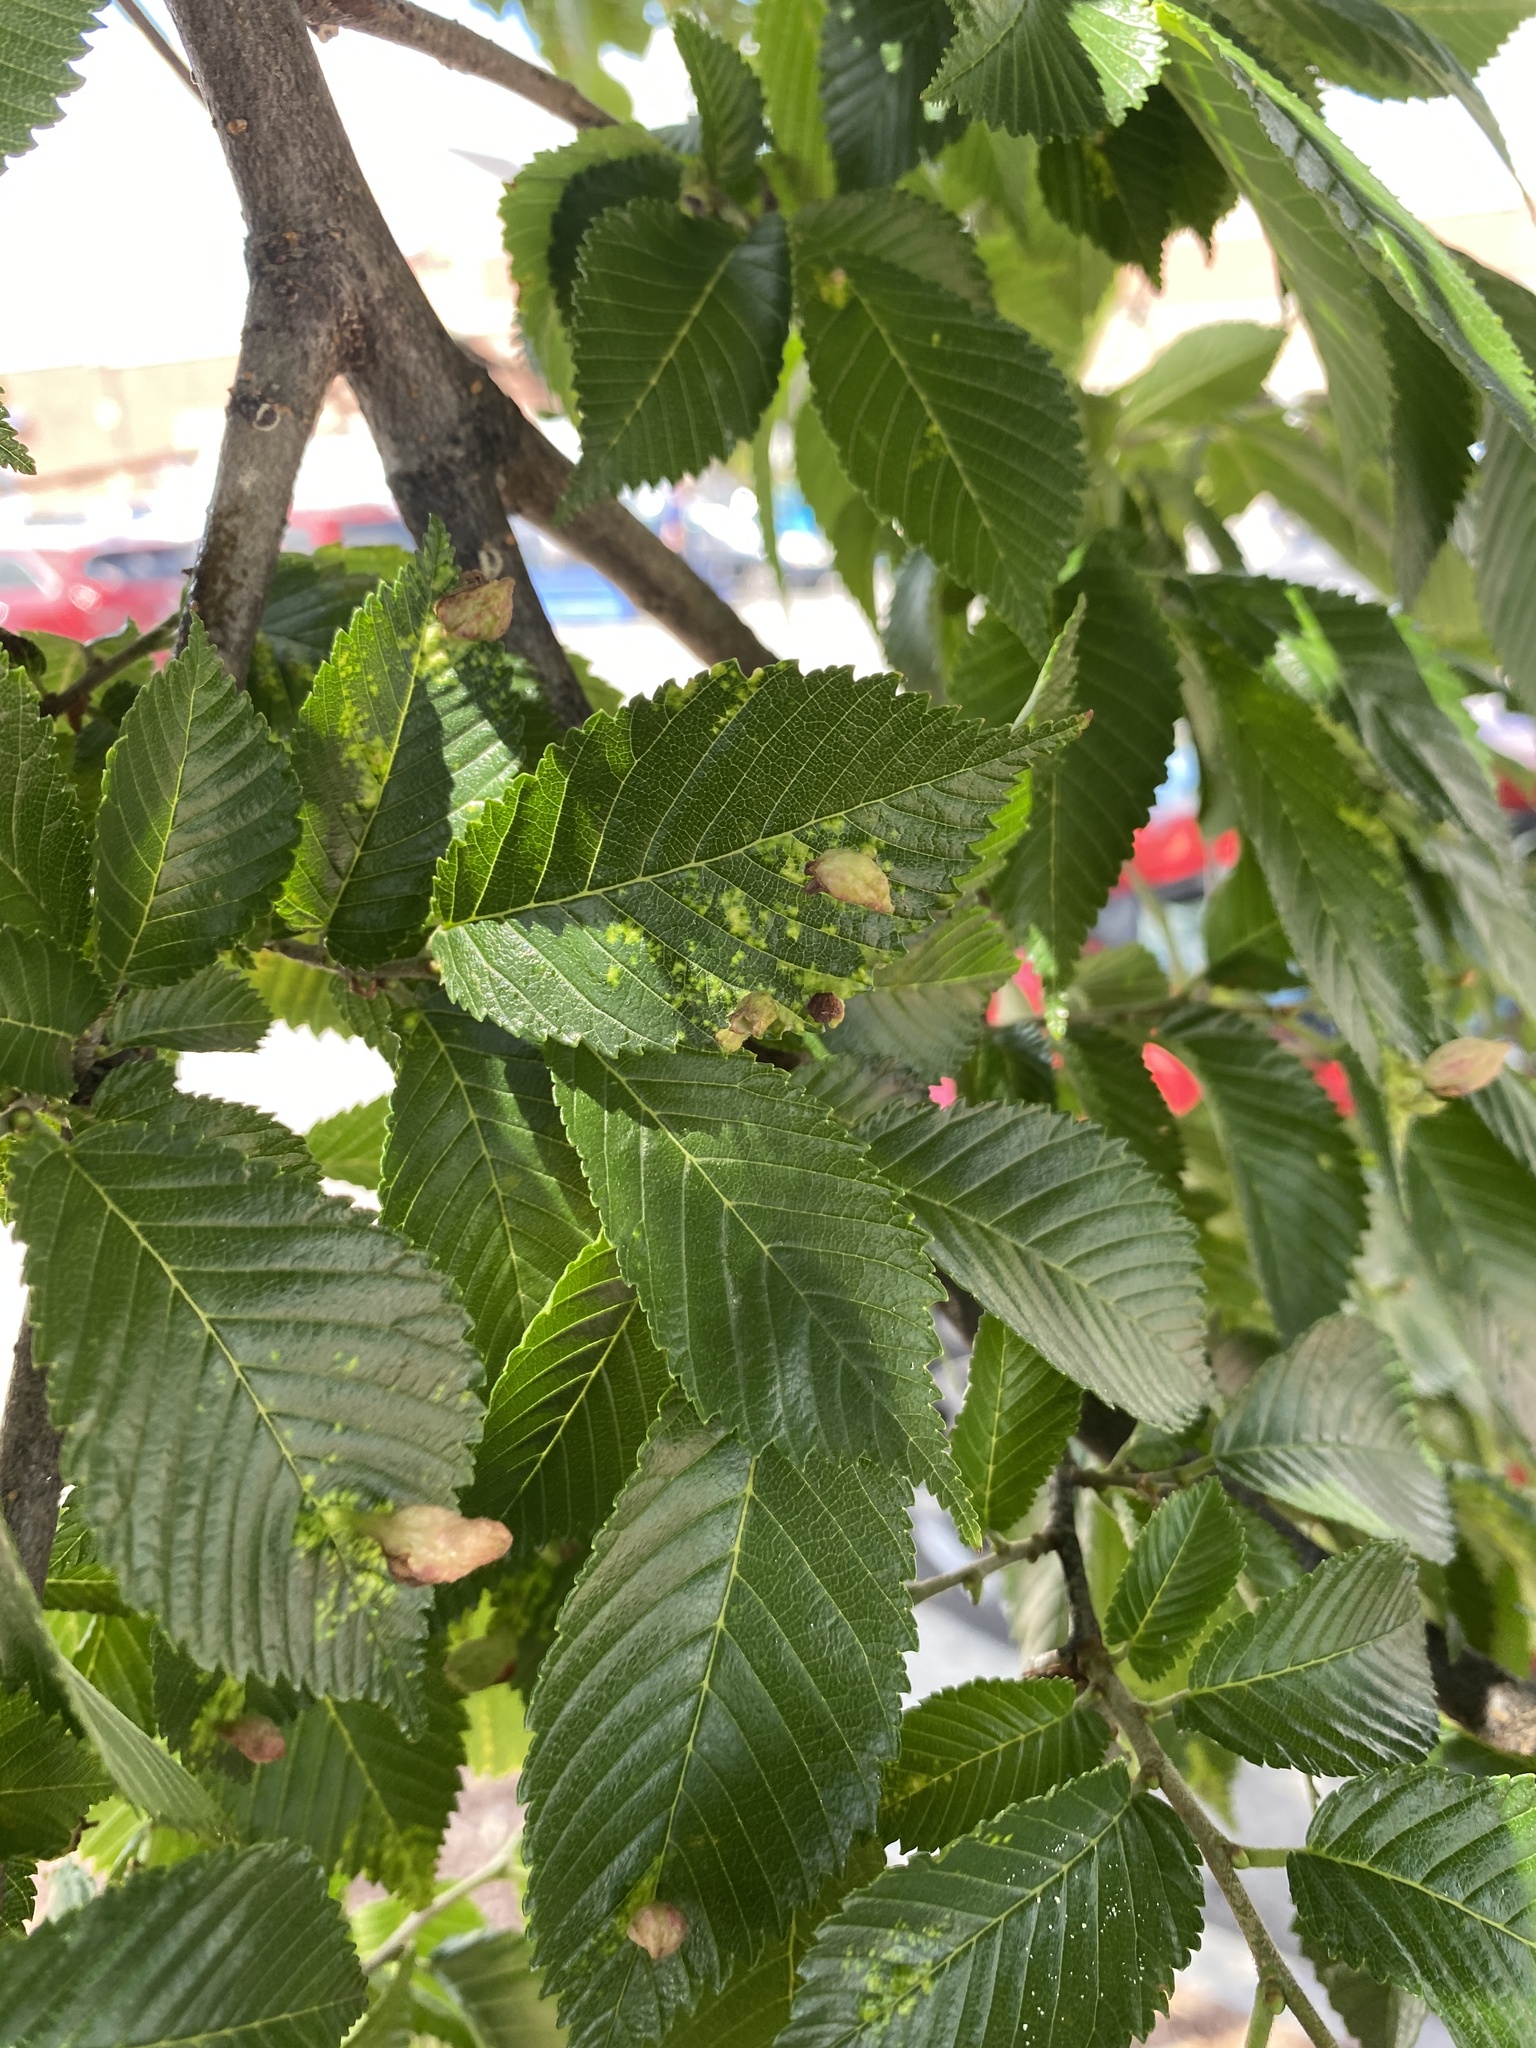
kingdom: Animalia
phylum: Arthropoda
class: Insecta
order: Hemiptera
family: Aphididae
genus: Tetraneura
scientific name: Tetraneura nigriabdominalis
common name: Aphid
